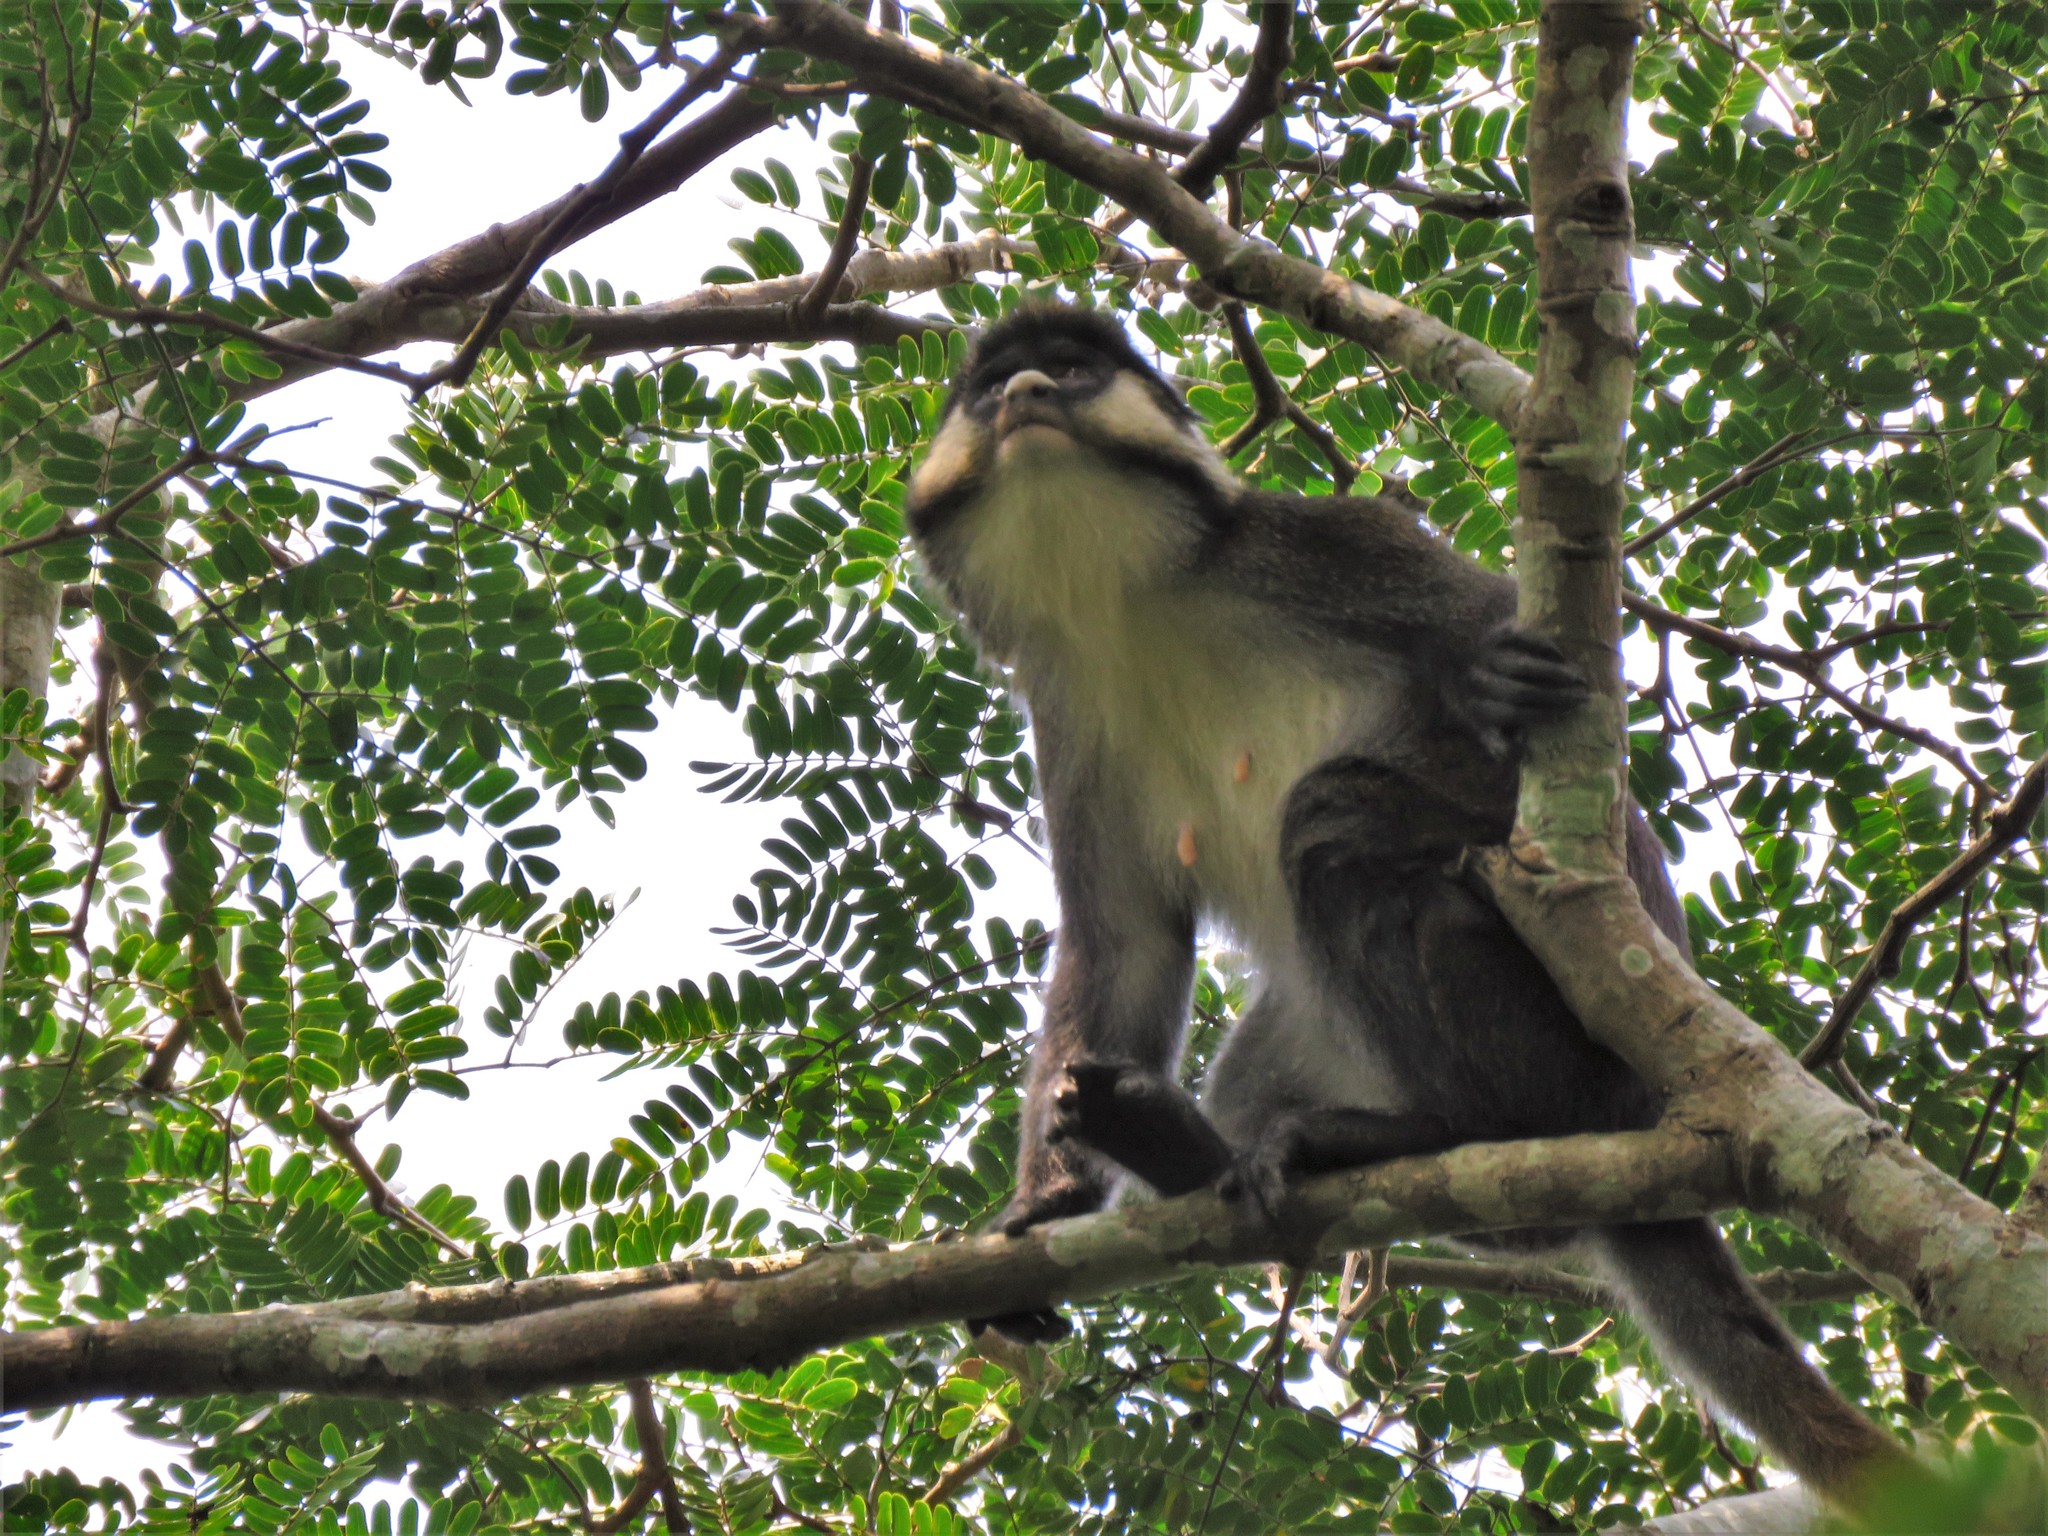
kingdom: Animalia
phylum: Chordata
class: Mammalia
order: Primates
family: Cercopithecidae
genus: Cercopithecus
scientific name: Cercopithecus ascanius
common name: Red-tailed monkey
